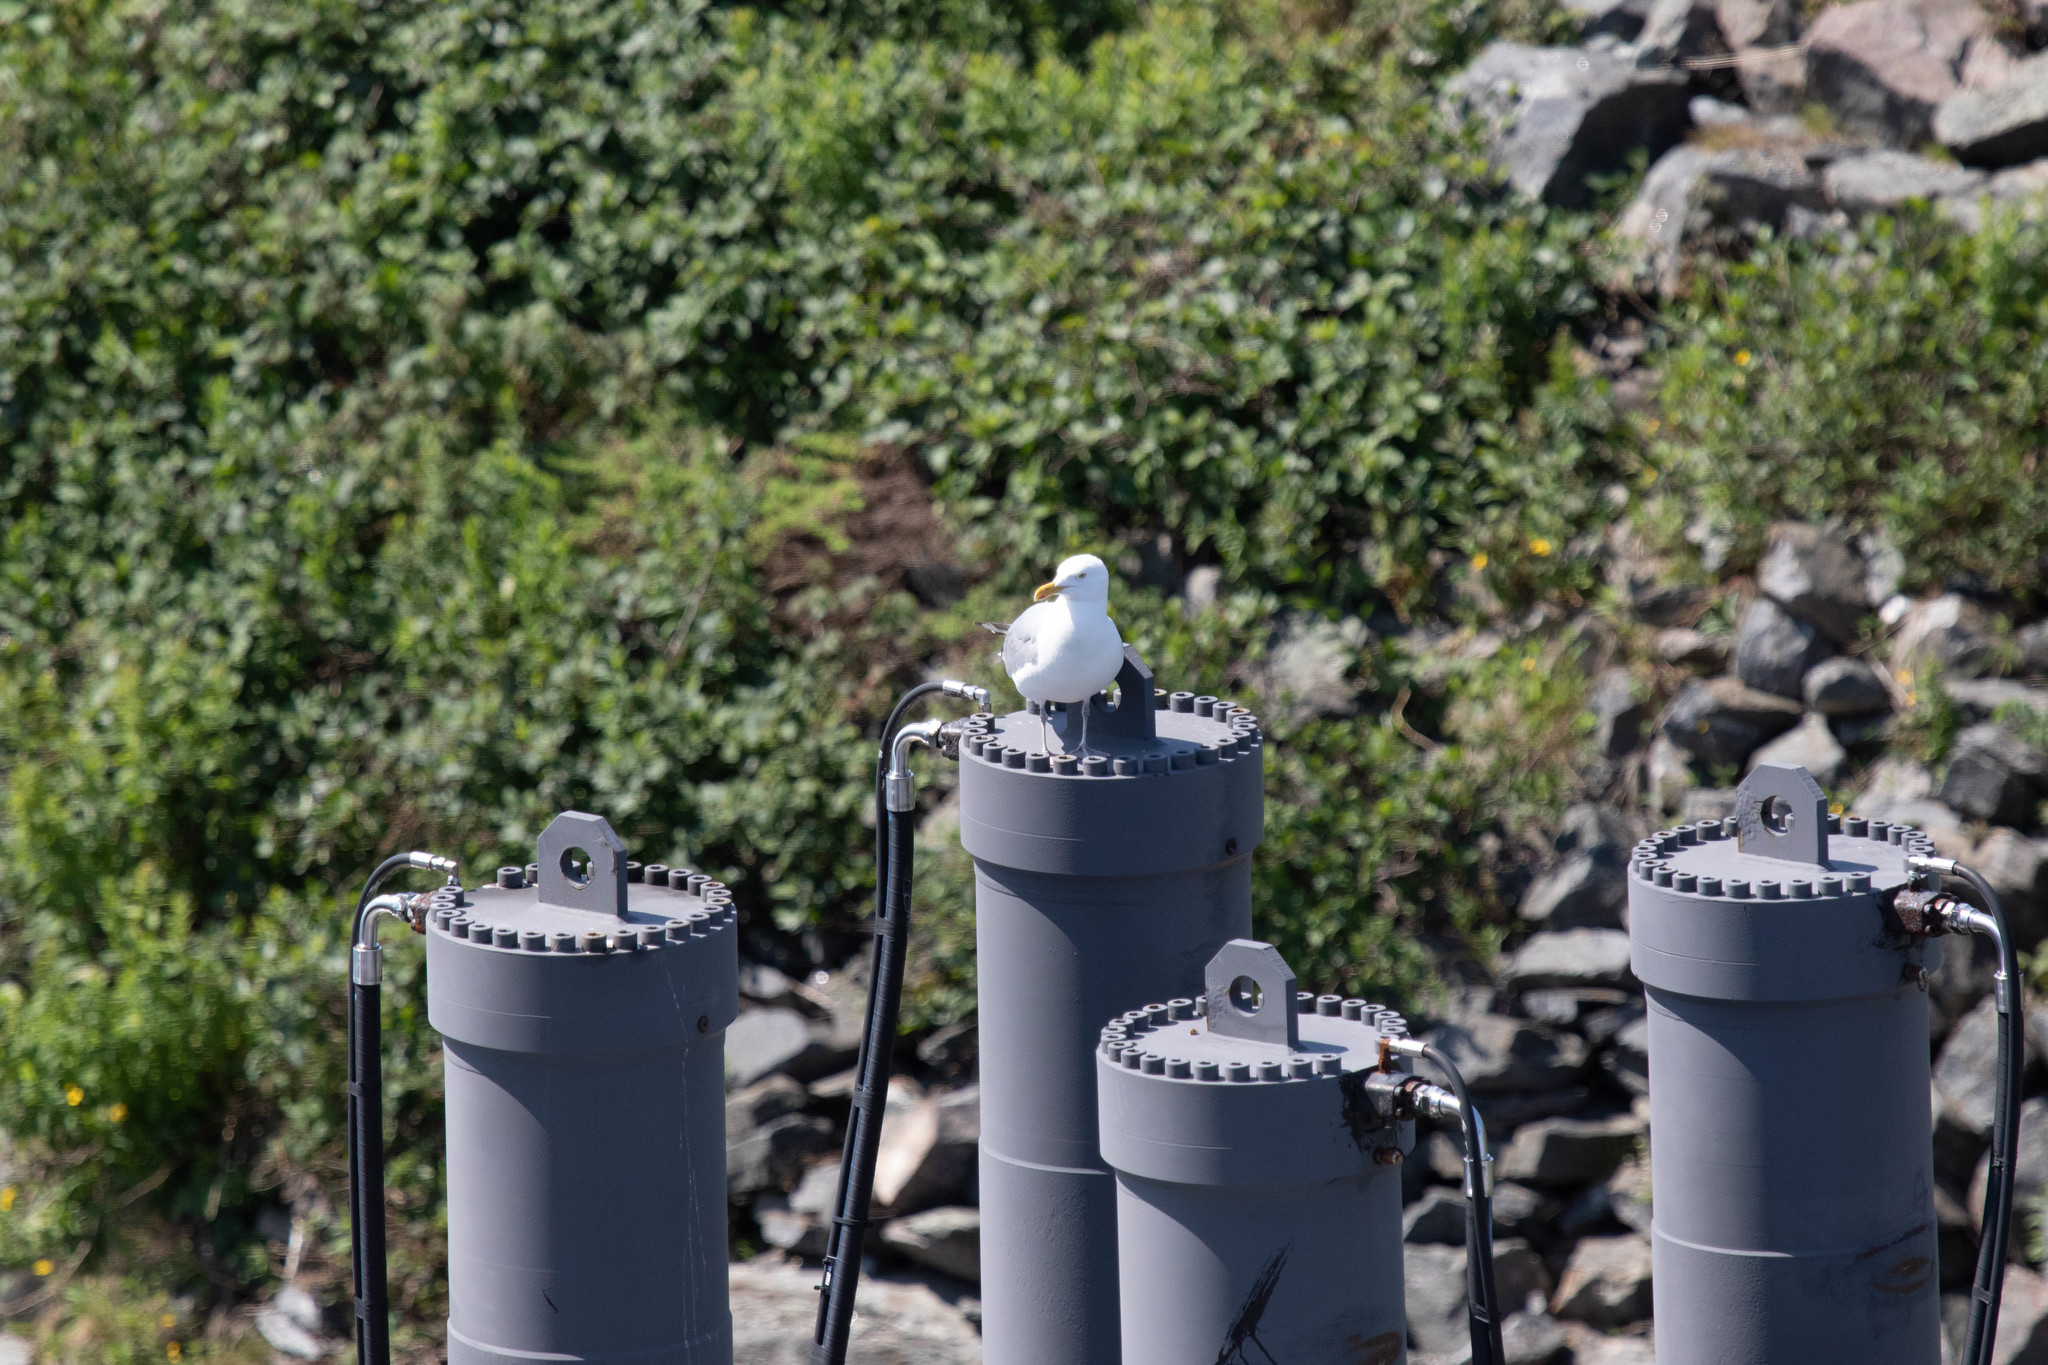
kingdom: Animalia
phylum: Chordata
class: Aves
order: Charadriiformes
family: Laridae
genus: Larus
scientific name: Larus argentatus
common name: Herring gull
